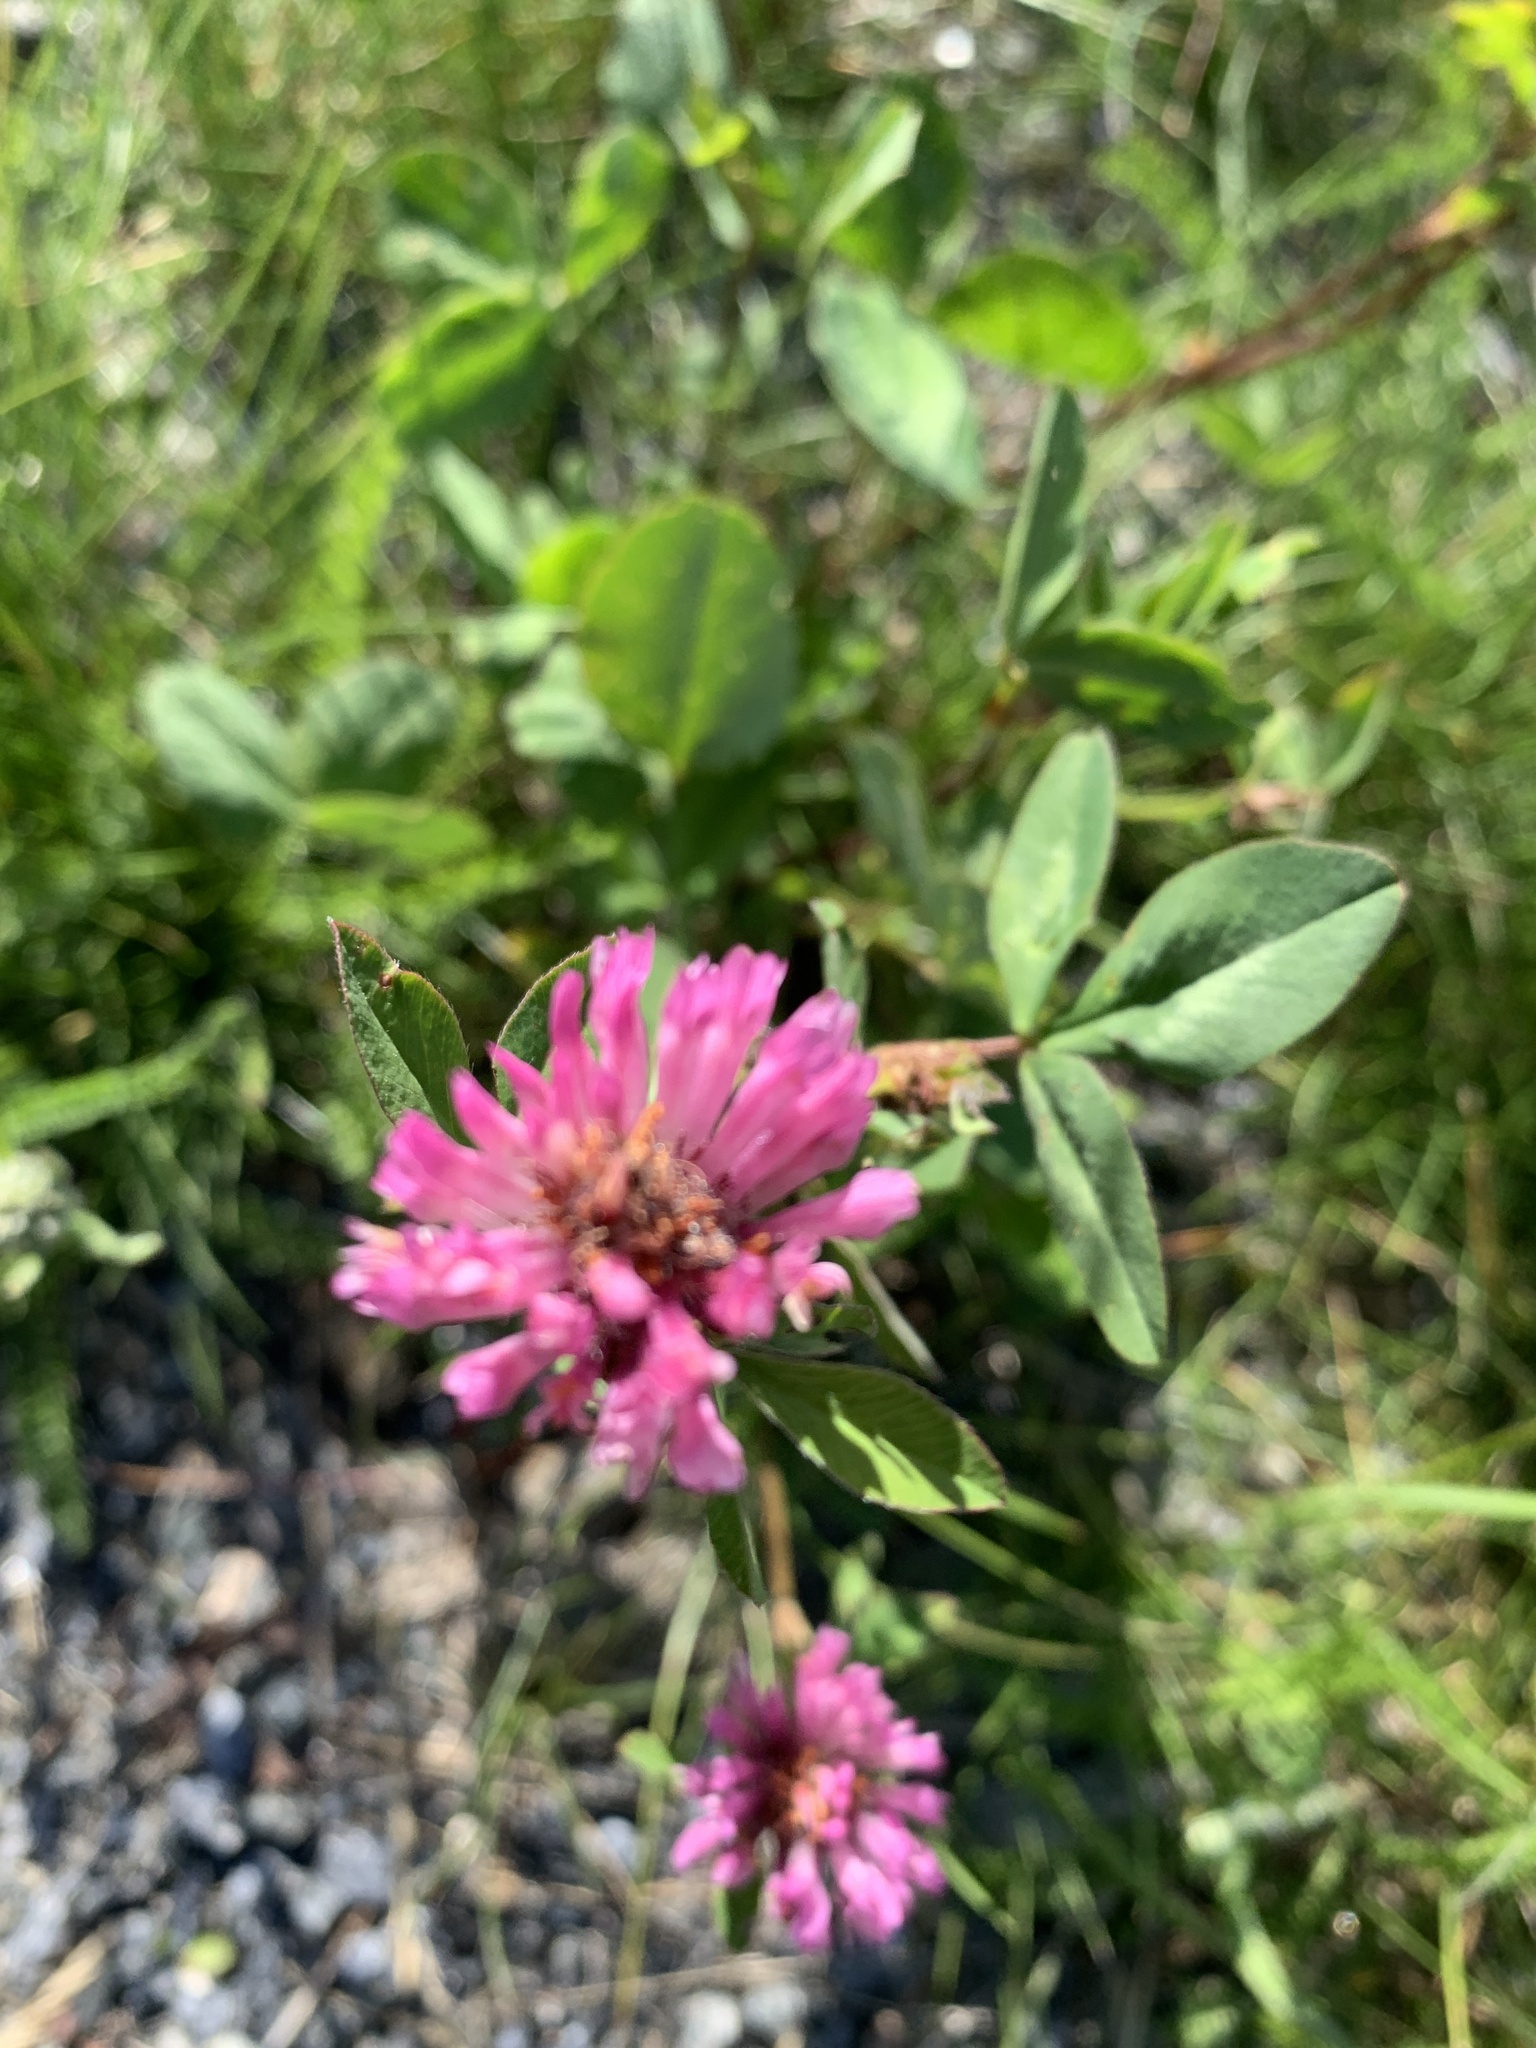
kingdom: Plantae
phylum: Tracheophyta
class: Magnoliopsida
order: Fabales
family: Fabaceae
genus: Trifolium
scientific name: Trifolium pratense
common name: Red clover
